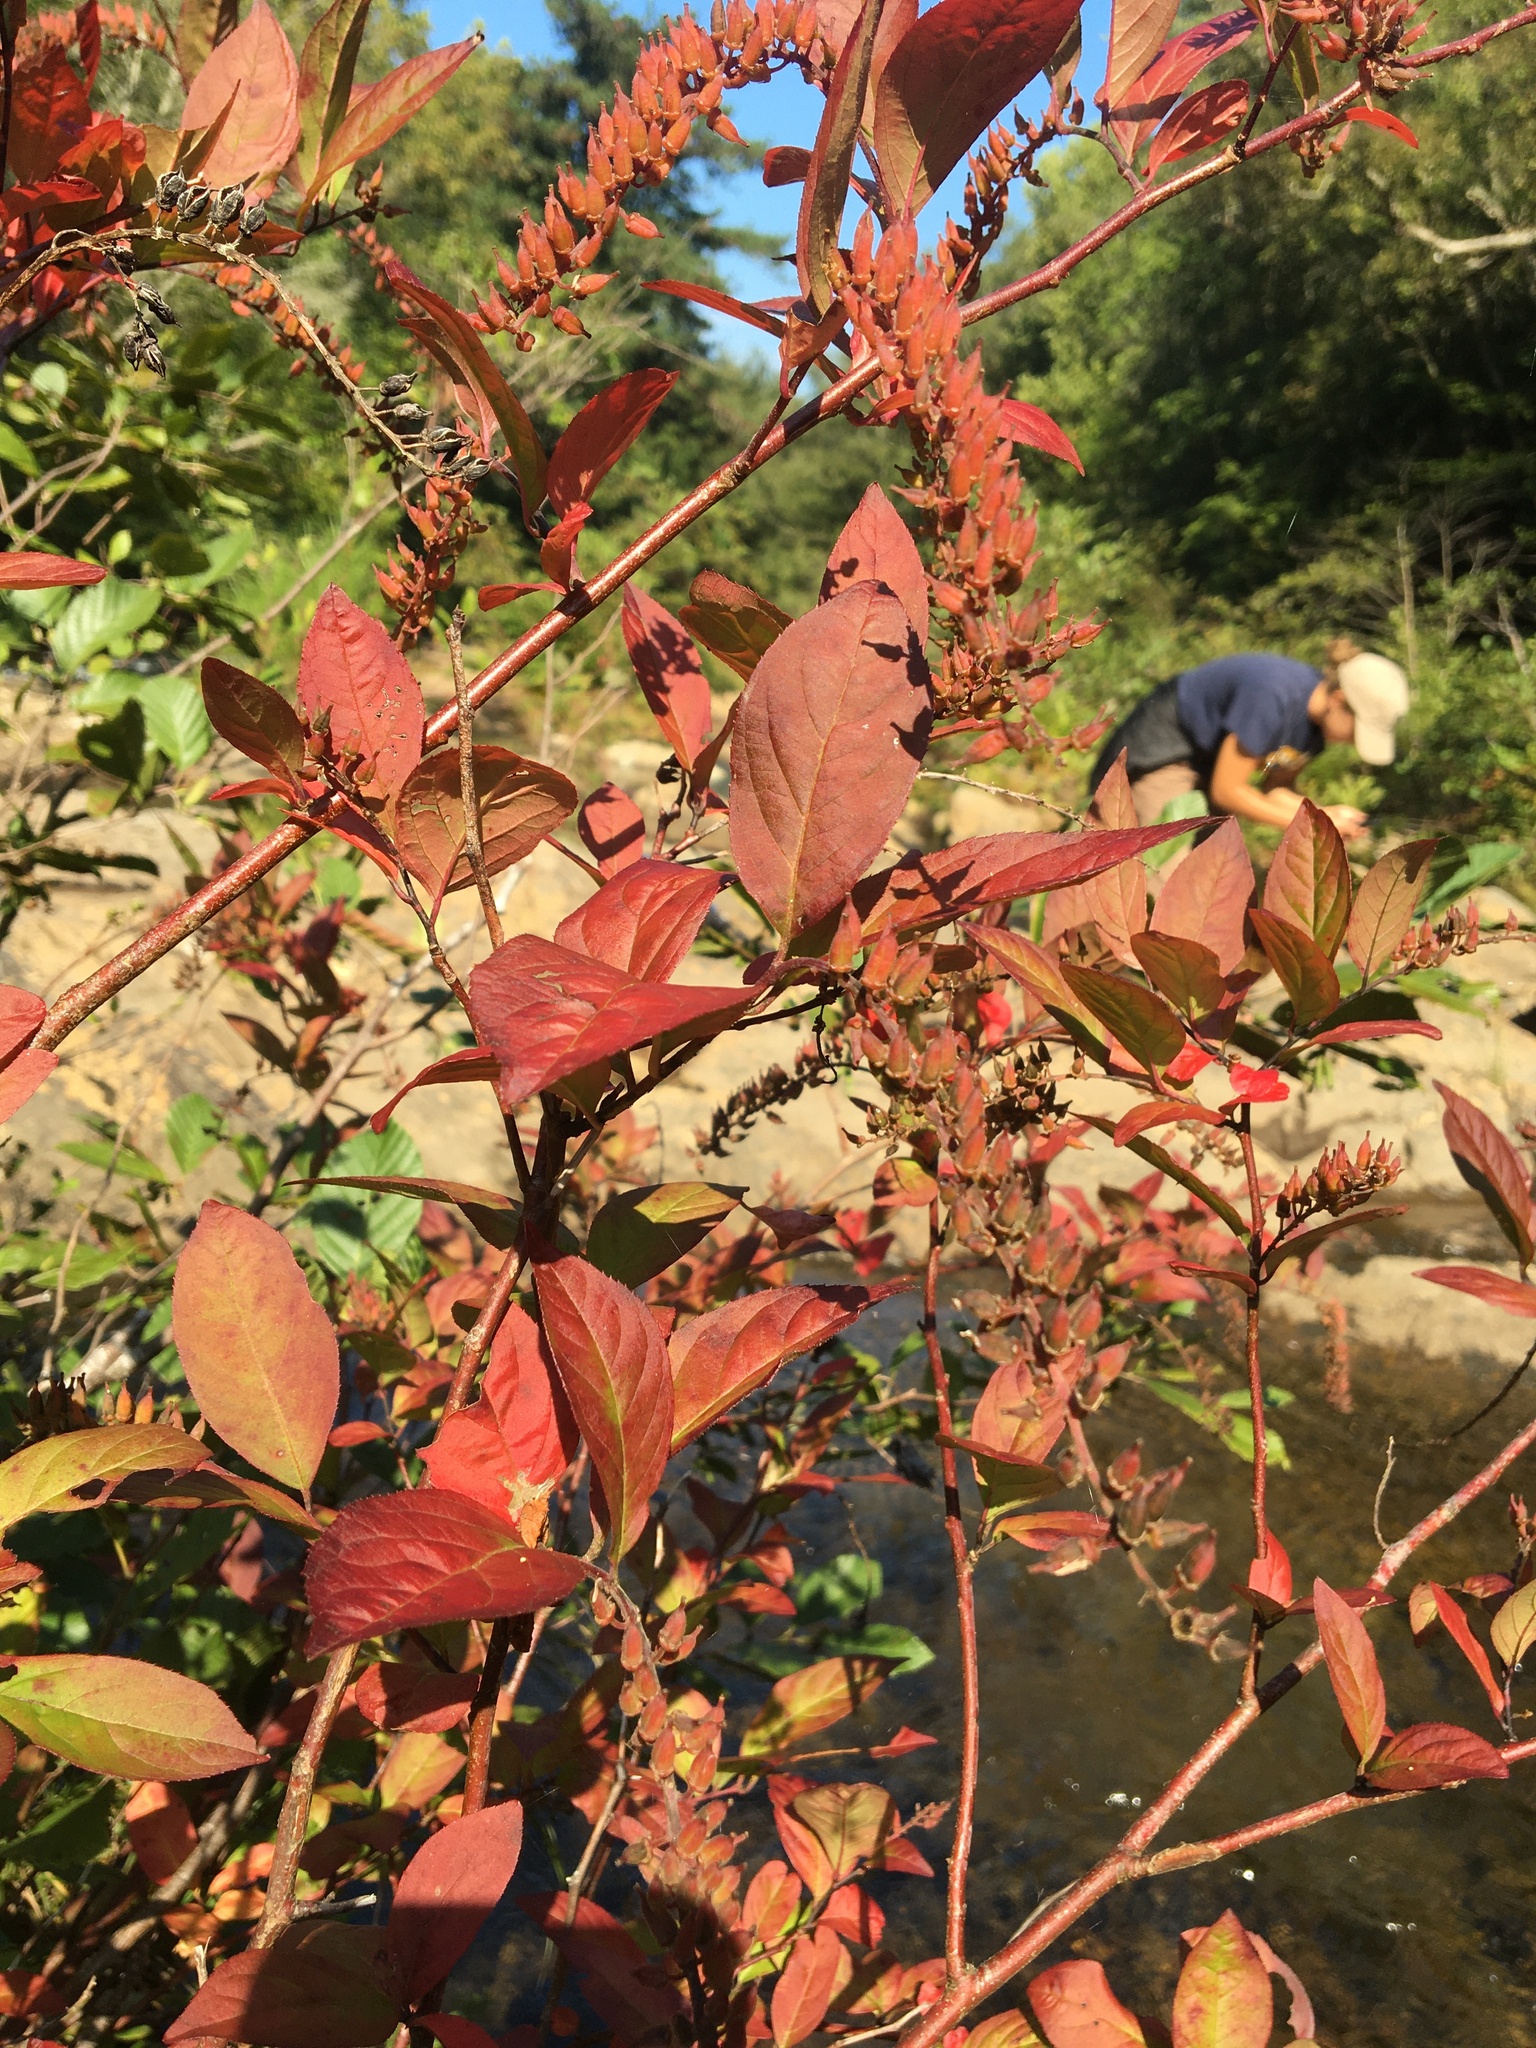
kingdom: Plantae
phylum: Tracheophyta
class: Magnoliopsida
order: Saxifragales
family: Iteaceae
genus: Itea
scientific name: Itea virginica
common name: Sweetspire
